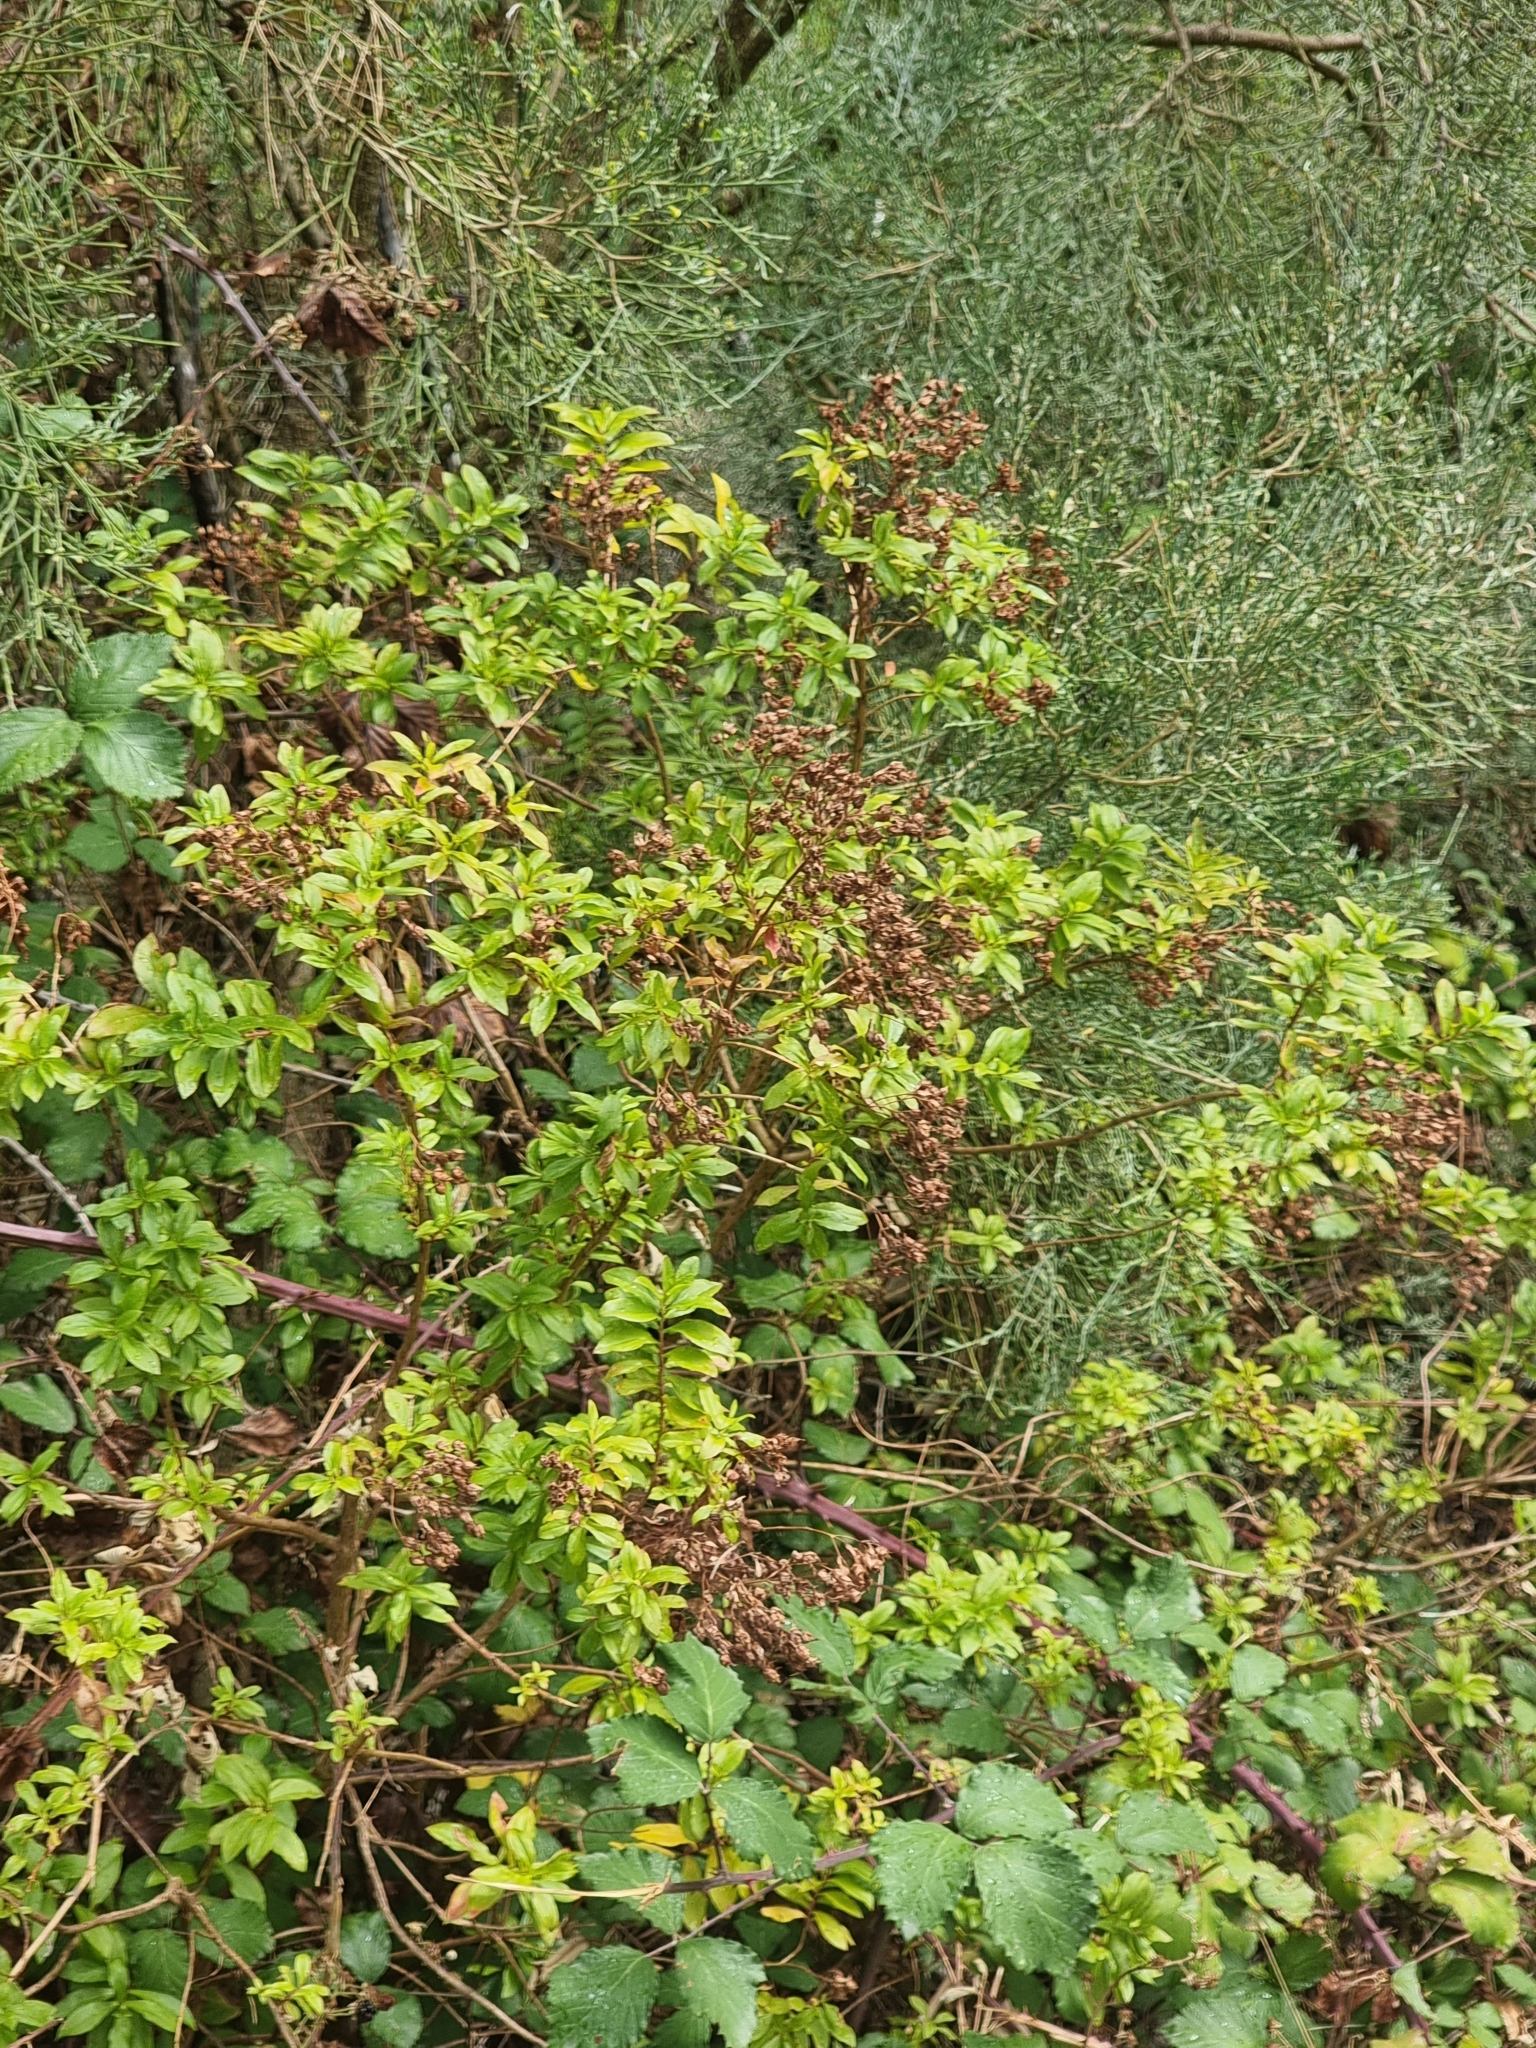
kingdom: Plantae
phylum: Tracheophyta
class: Magnoliopsida
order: Malpighiales
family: Hypericaceae
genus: Hypericum
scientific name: Hypericum glandulosum
